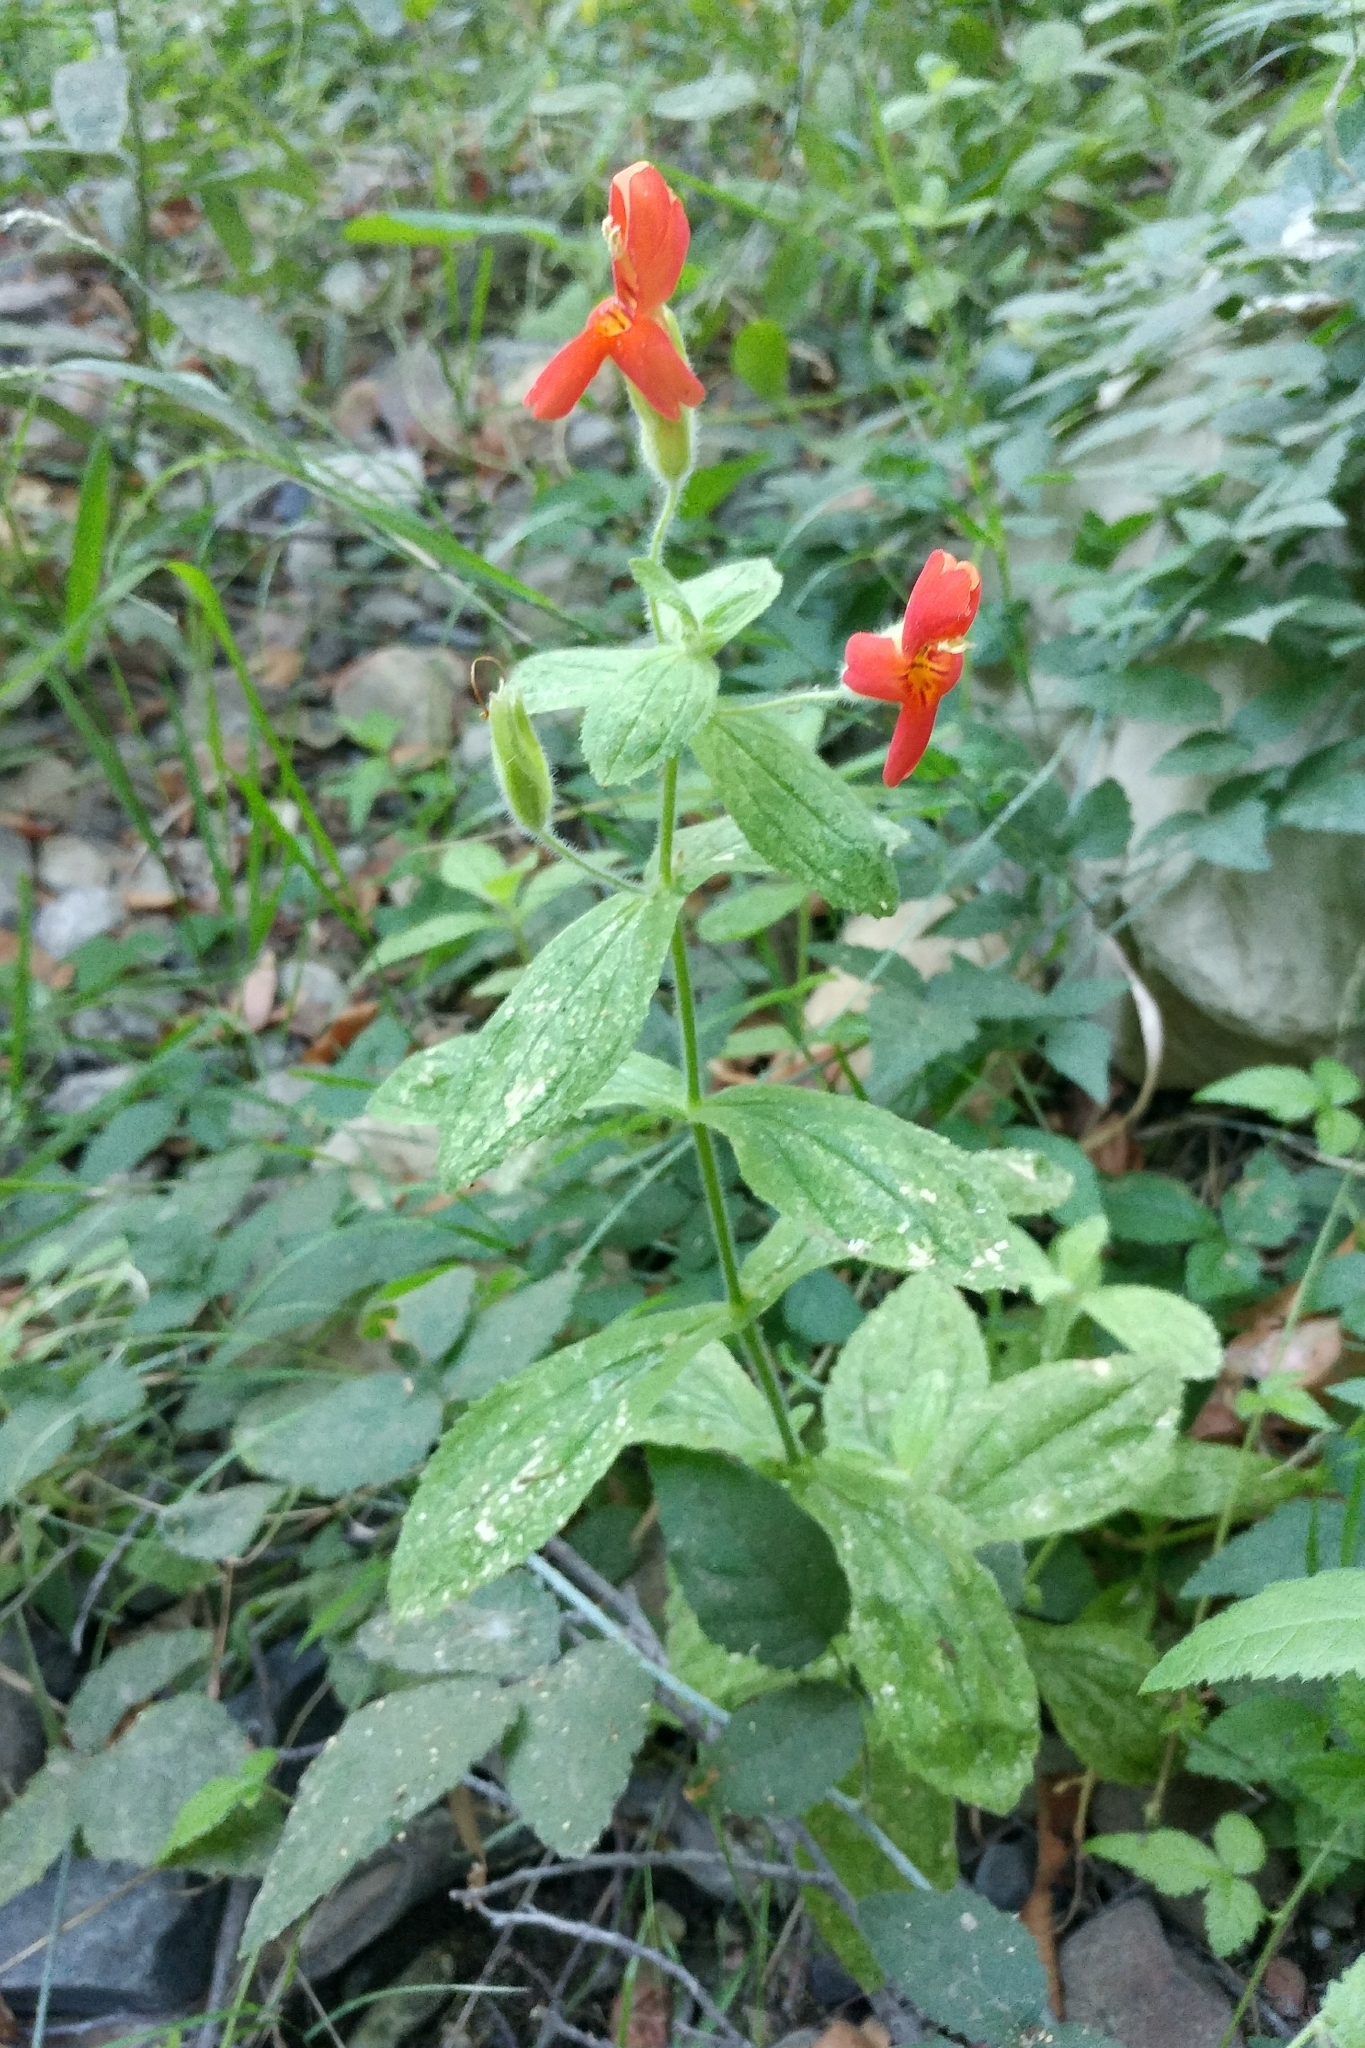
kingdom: Plantae
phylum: Tracheophyta
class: Magnoliopsida
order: Lamiales
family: Phrymaceae
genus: Erythranthe
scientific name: Erythranthe cardinalis
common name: Scarlet monkey-flower
